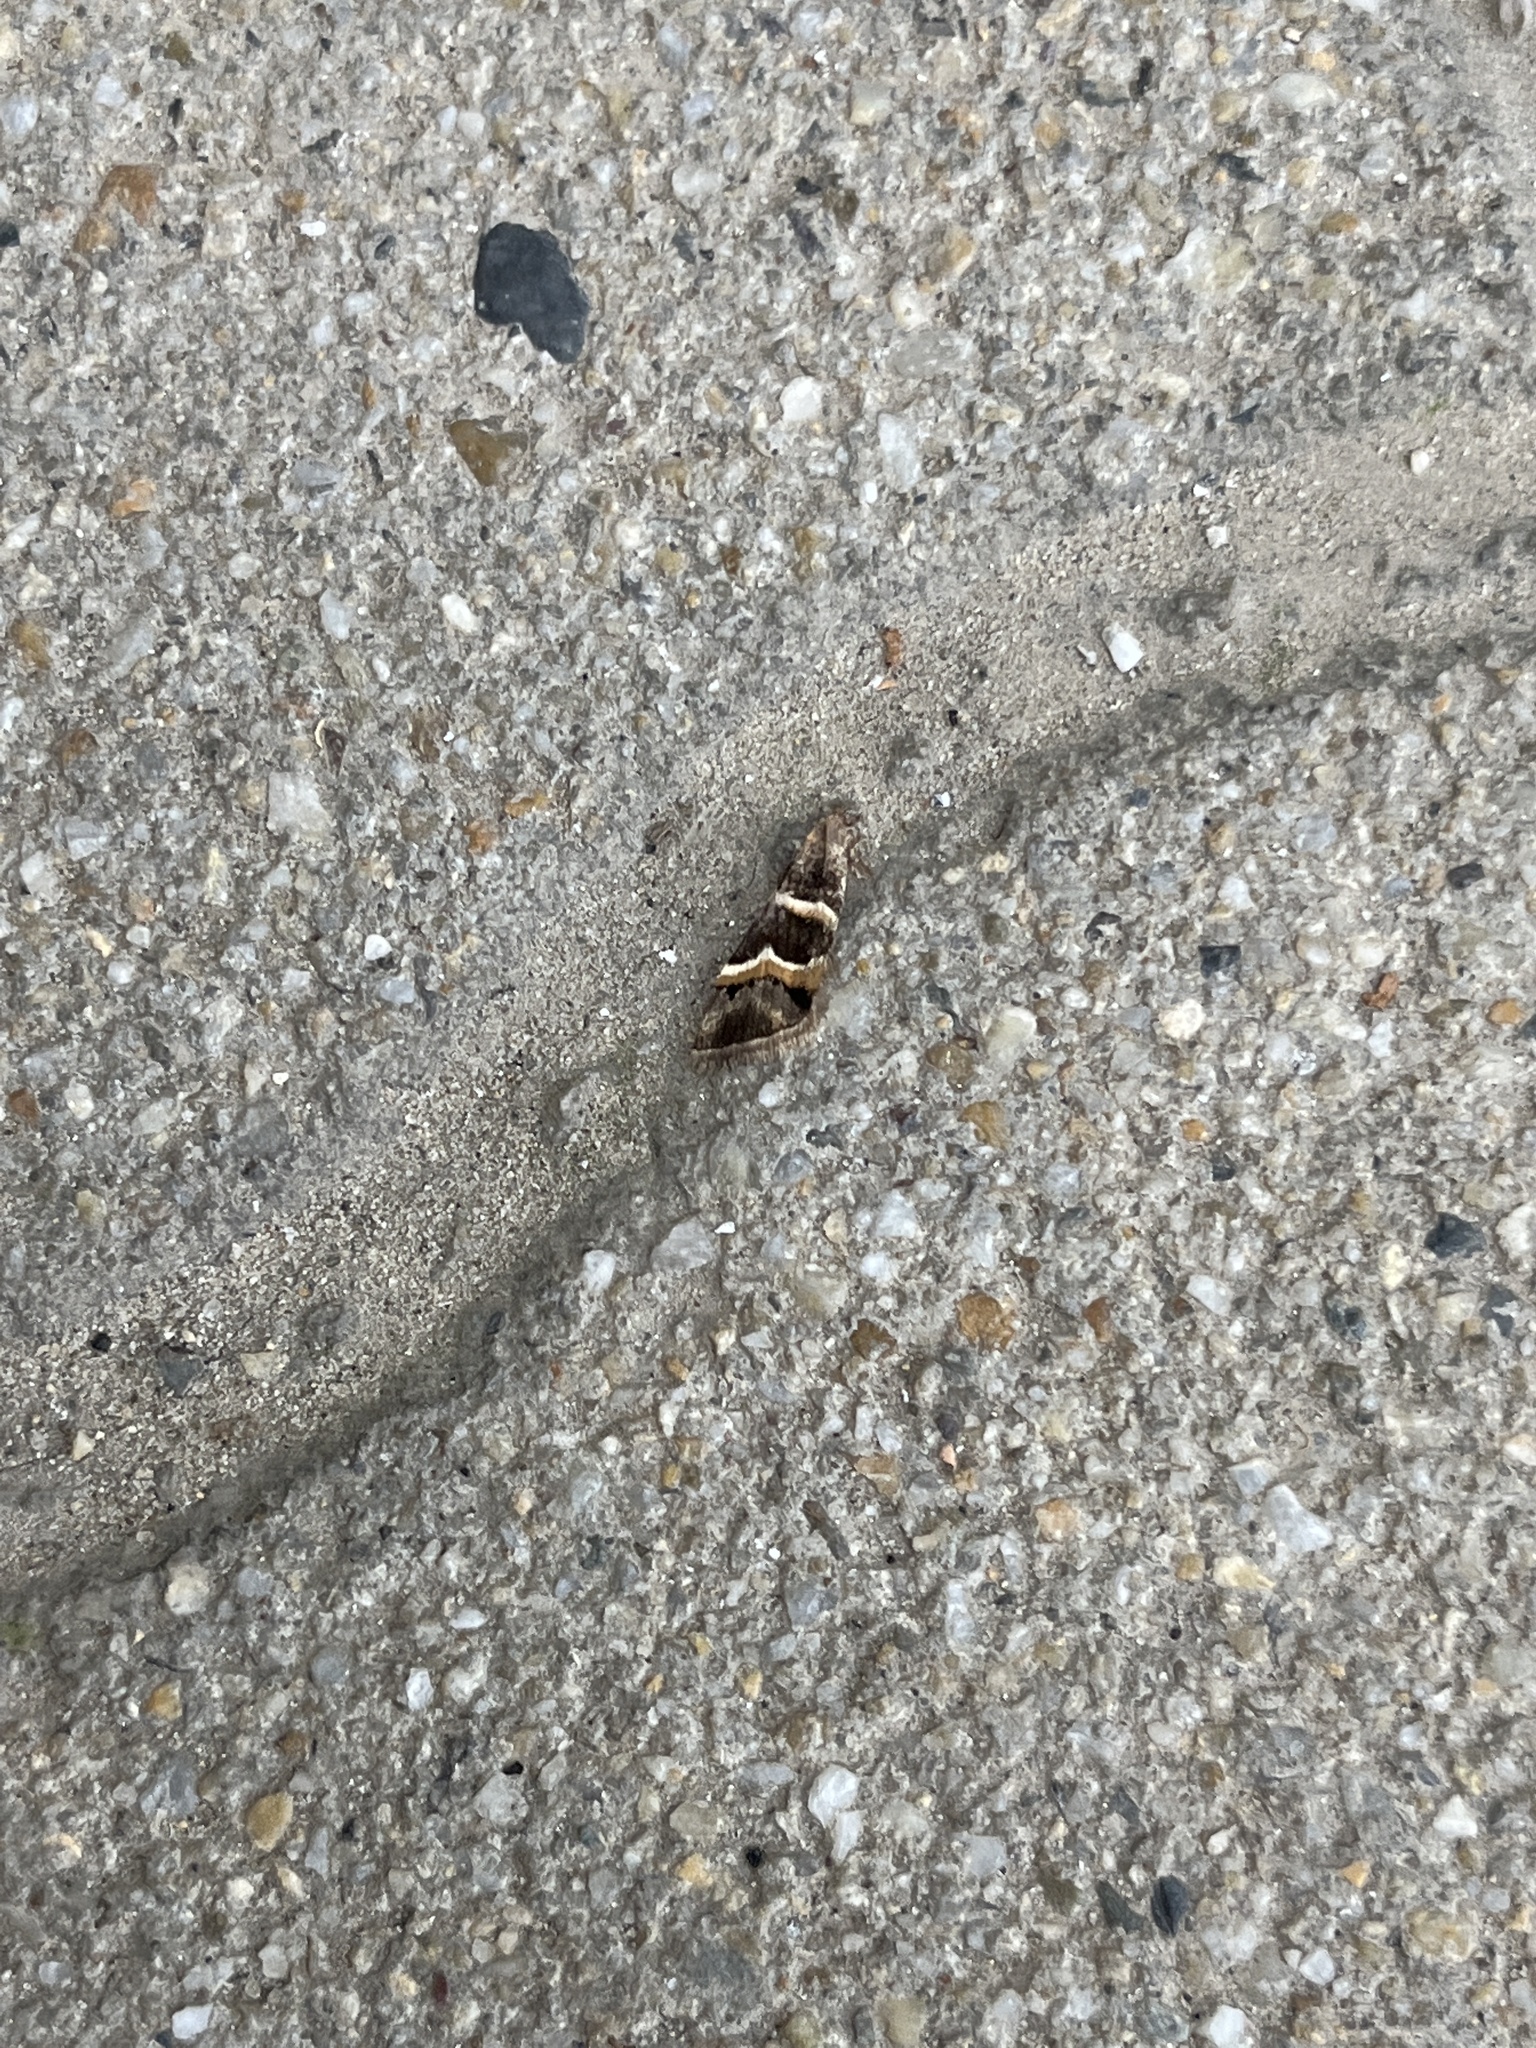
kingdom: Animalia
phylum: Arthropoda
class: Insecta
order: Lepidoptera
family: Erebidae
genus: Grammodes
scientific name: Grammodes stolida
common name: Geometrician
